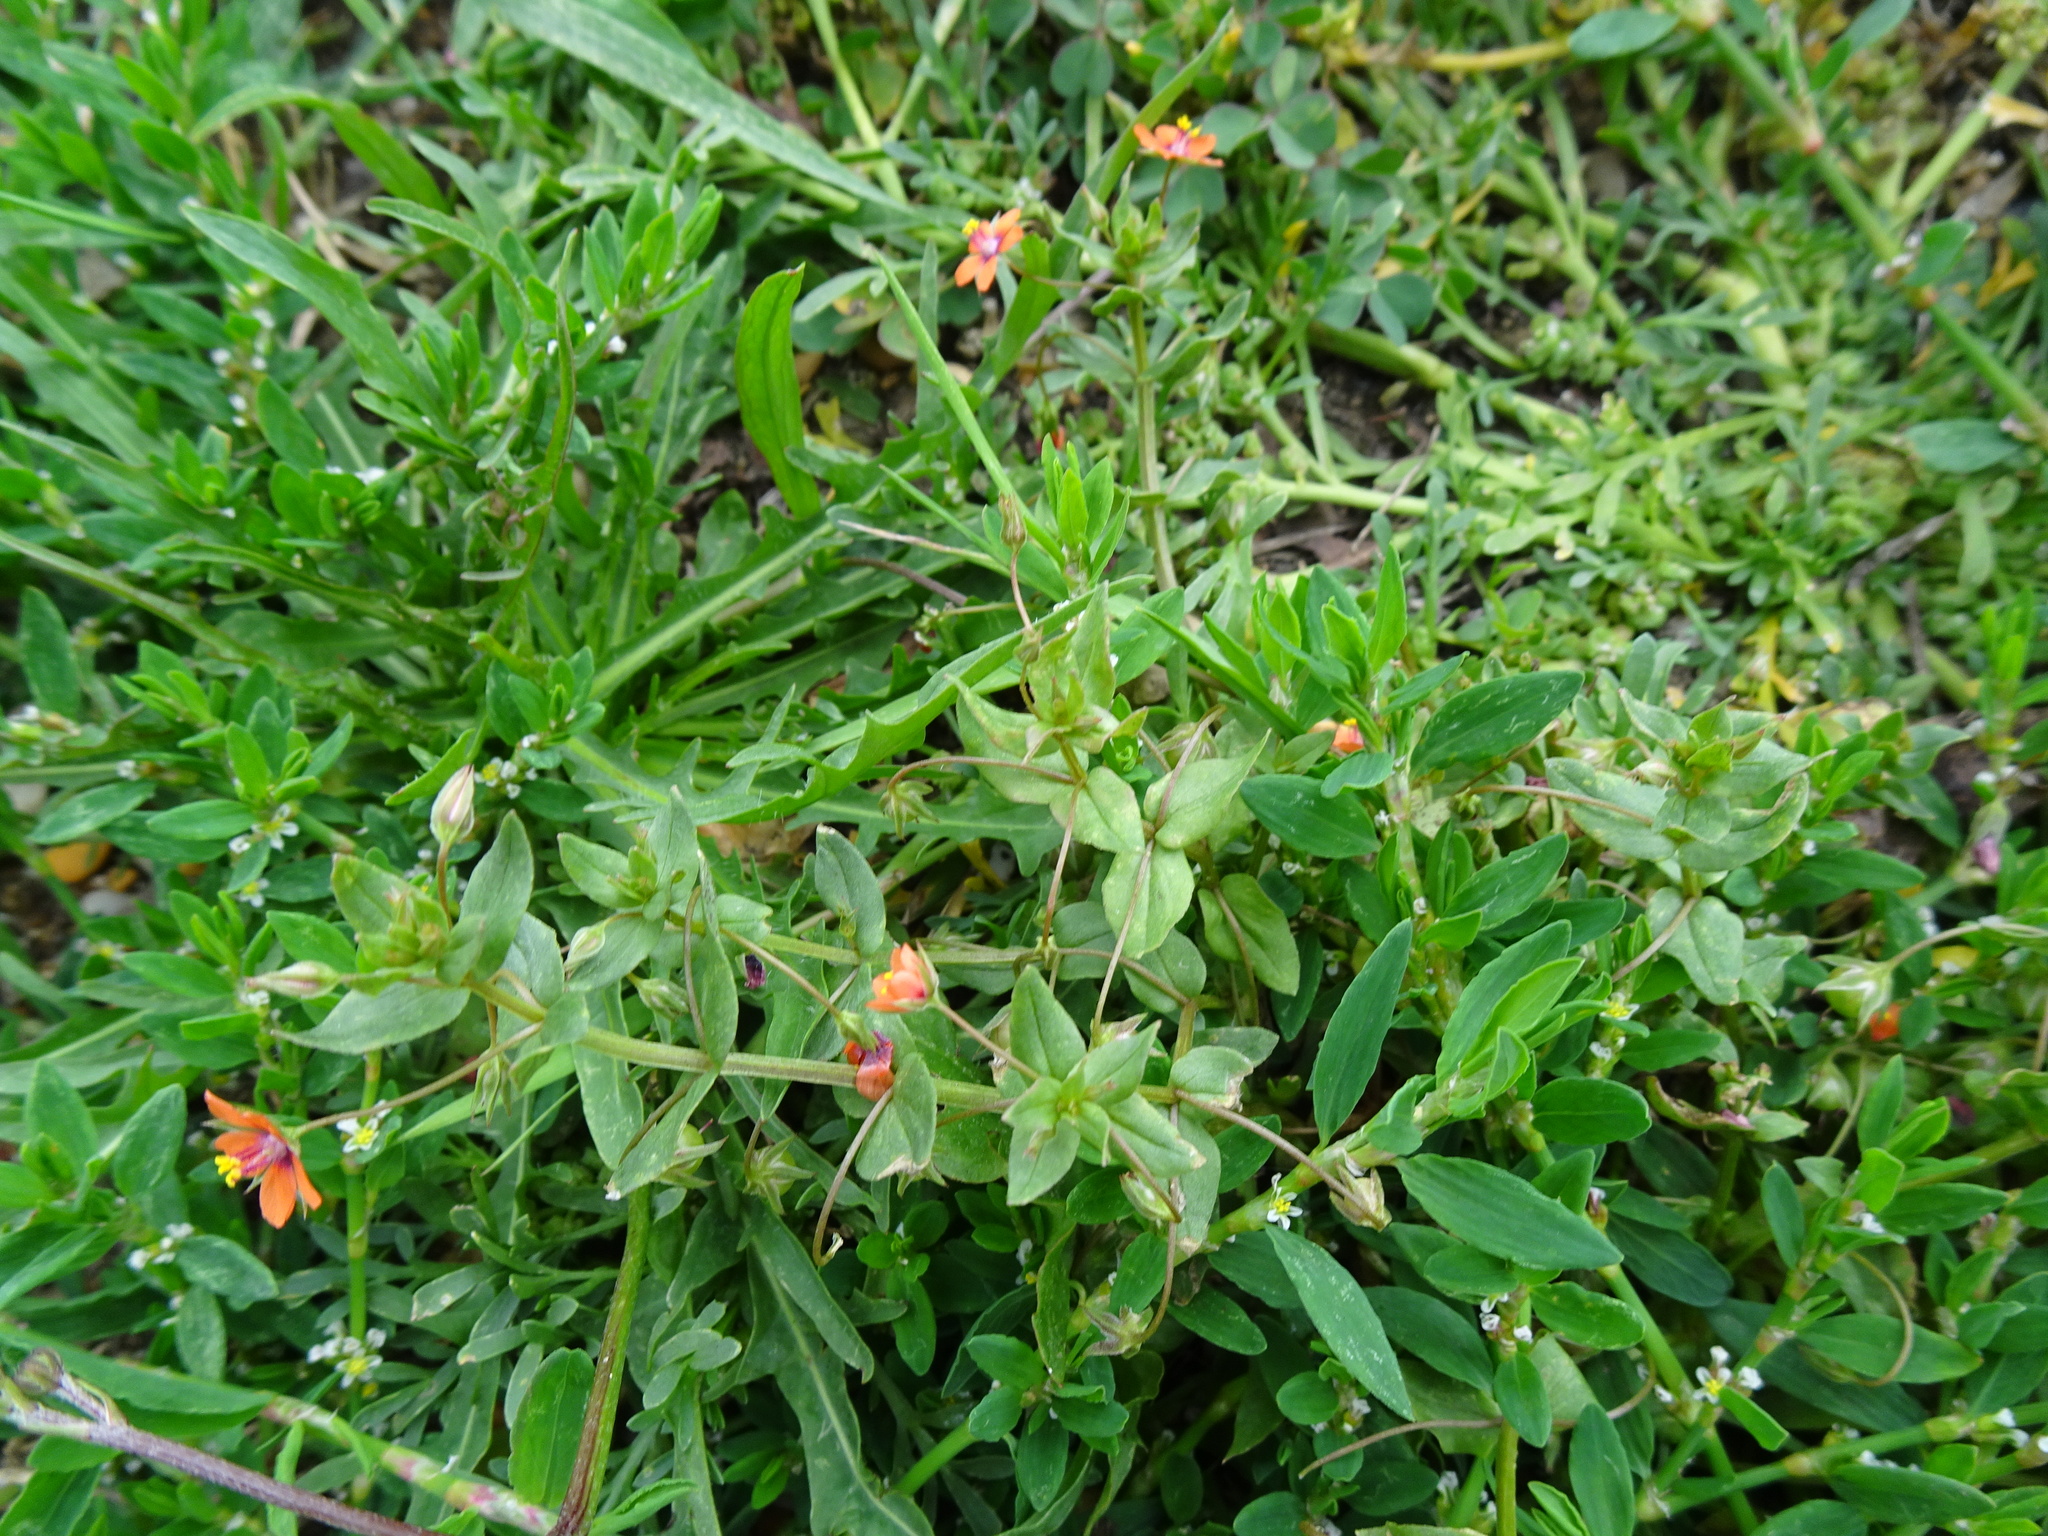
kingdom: Plantae
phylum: Tracheophyta
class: Magnoliopsida
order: Ericales
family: Primulaceae
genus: Lysimachia
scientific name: Lysimachia arvensis
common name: Scarlet pimpernel
